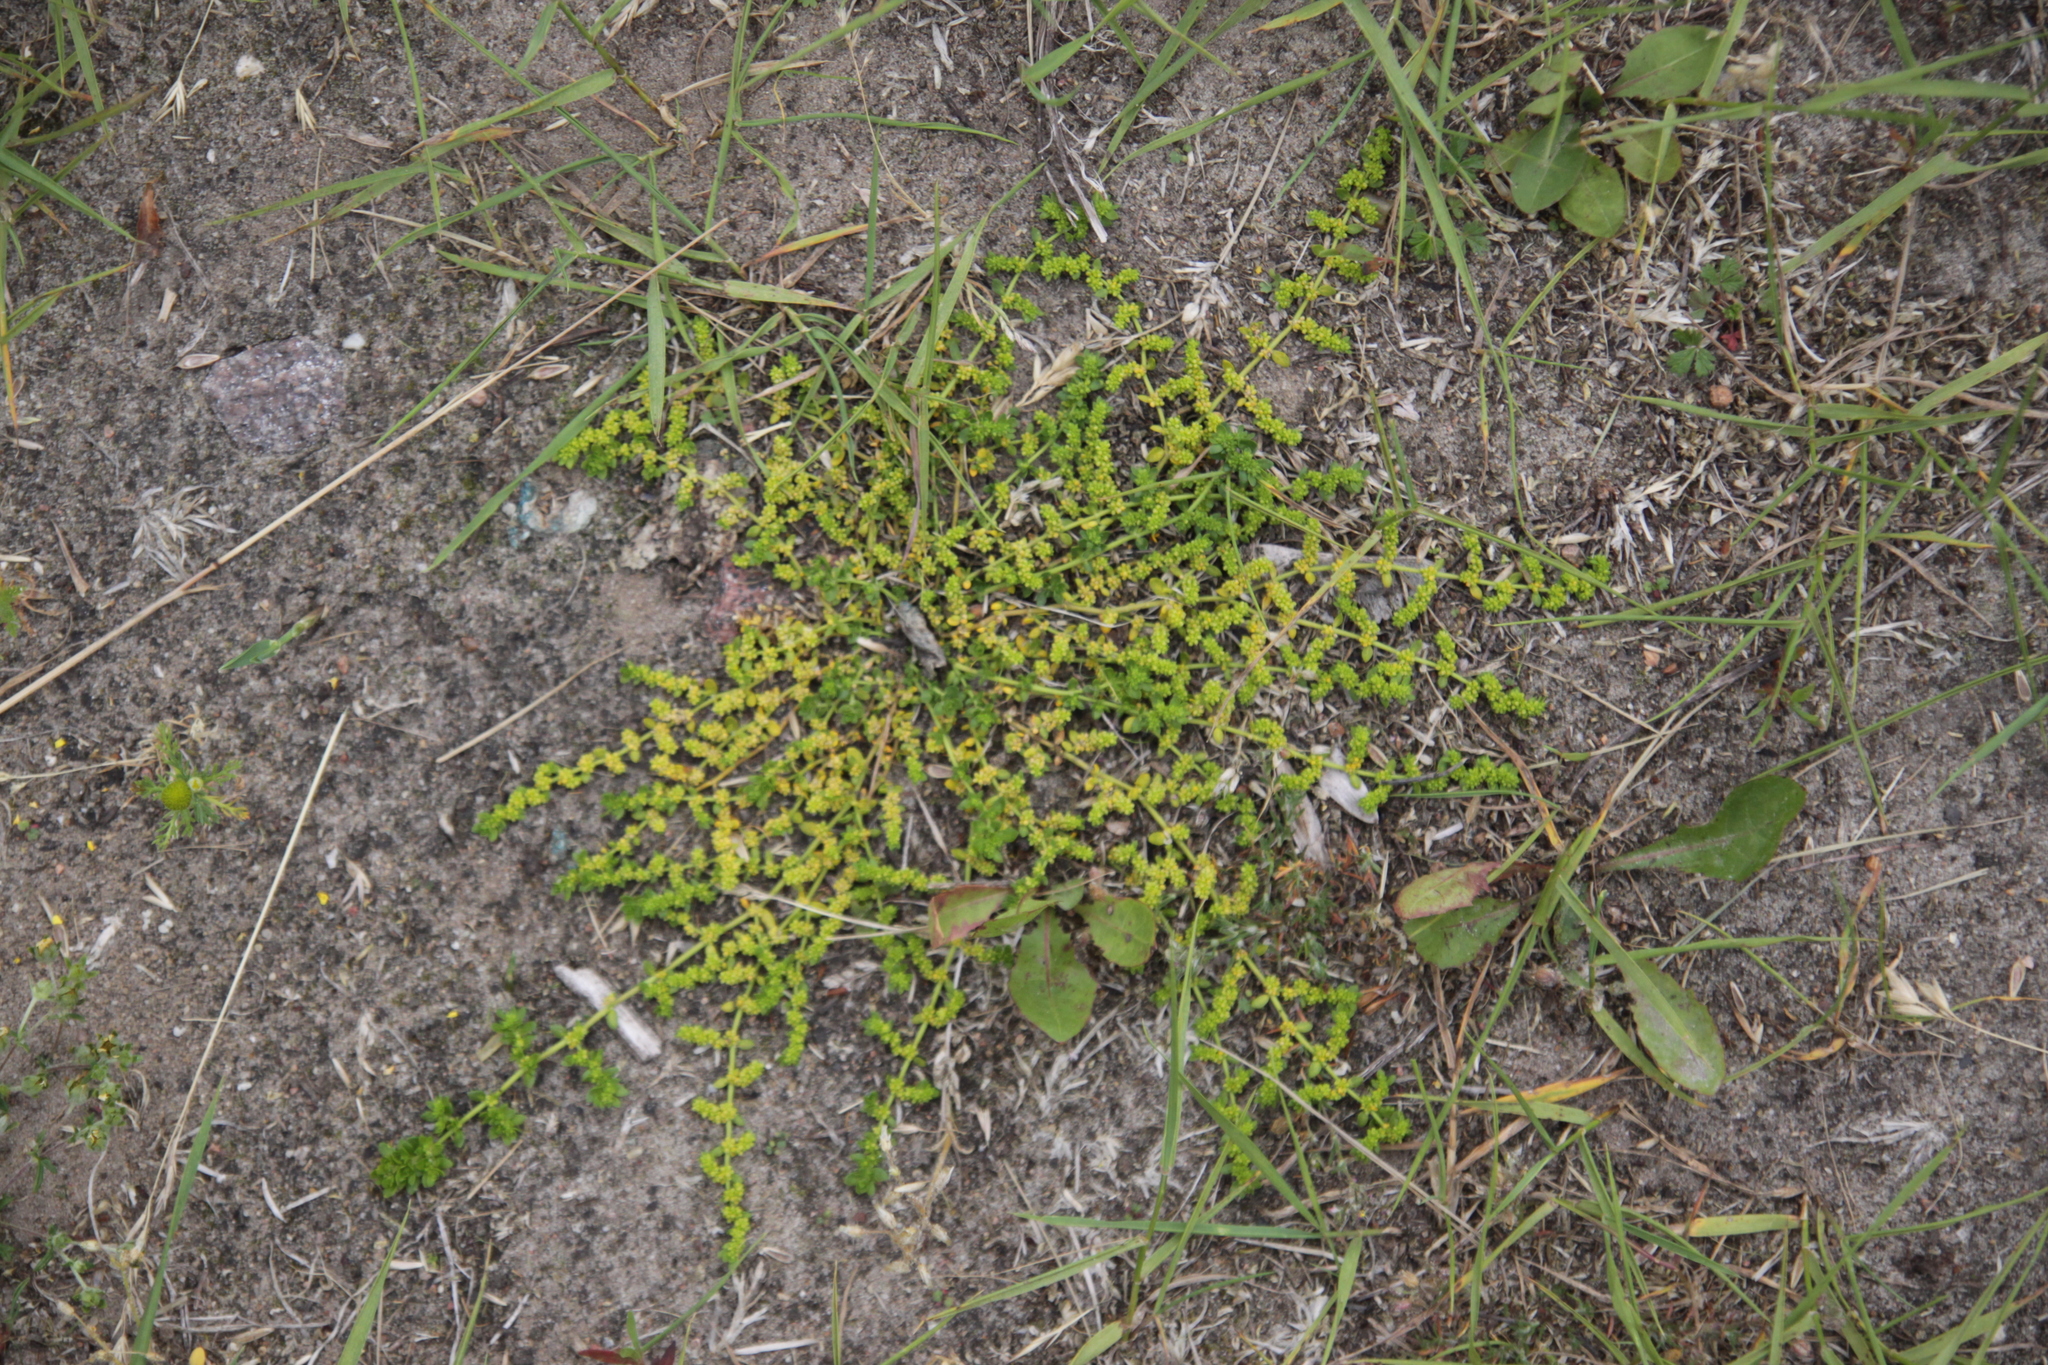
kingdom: Plantae
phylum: Tracheophyta
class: Magnoliopsida
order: Caryophyllales
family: Caryophyllaceae
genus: Herniaria
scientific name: Herniaria glabra
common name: Smooth rupturewort
